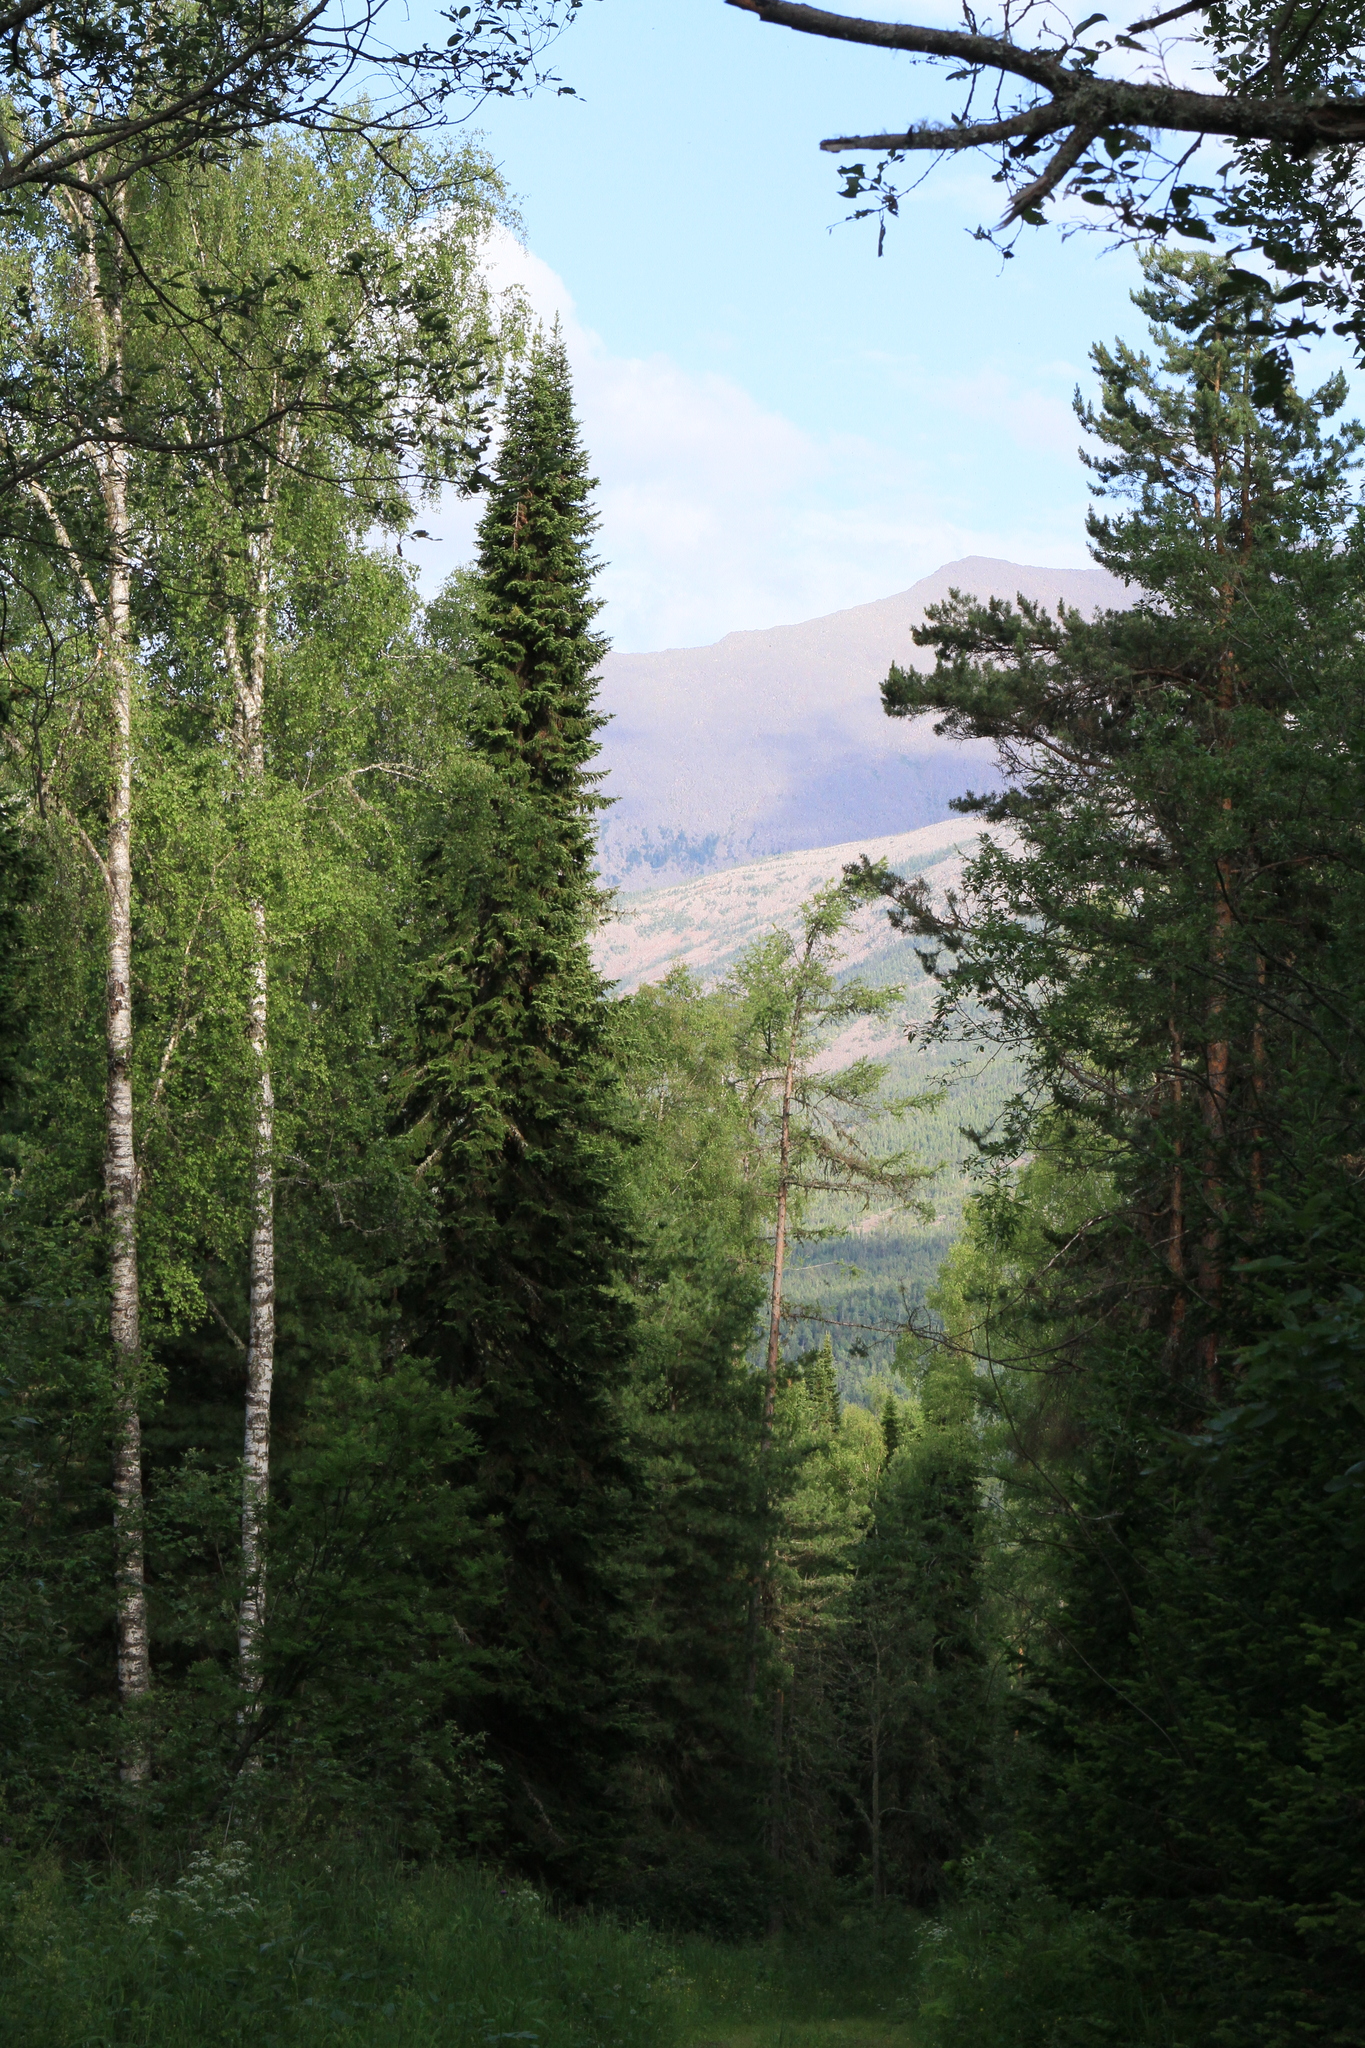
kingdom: Plantae
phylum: Tracheophyta
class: Pinopsida
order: Pinales
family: Pinaceae
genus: Abies
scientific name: Abies sibirica
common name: Siberian fir
